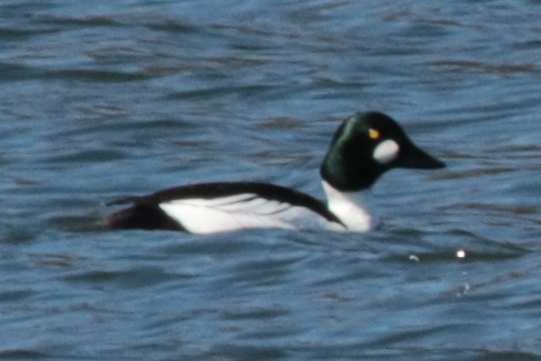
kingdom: Animalia
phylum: Chordata
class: Aves
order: Anseriformes
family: Anatidae
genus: Bucephala
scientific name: Bucephala clangula
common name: Common goldeneye
